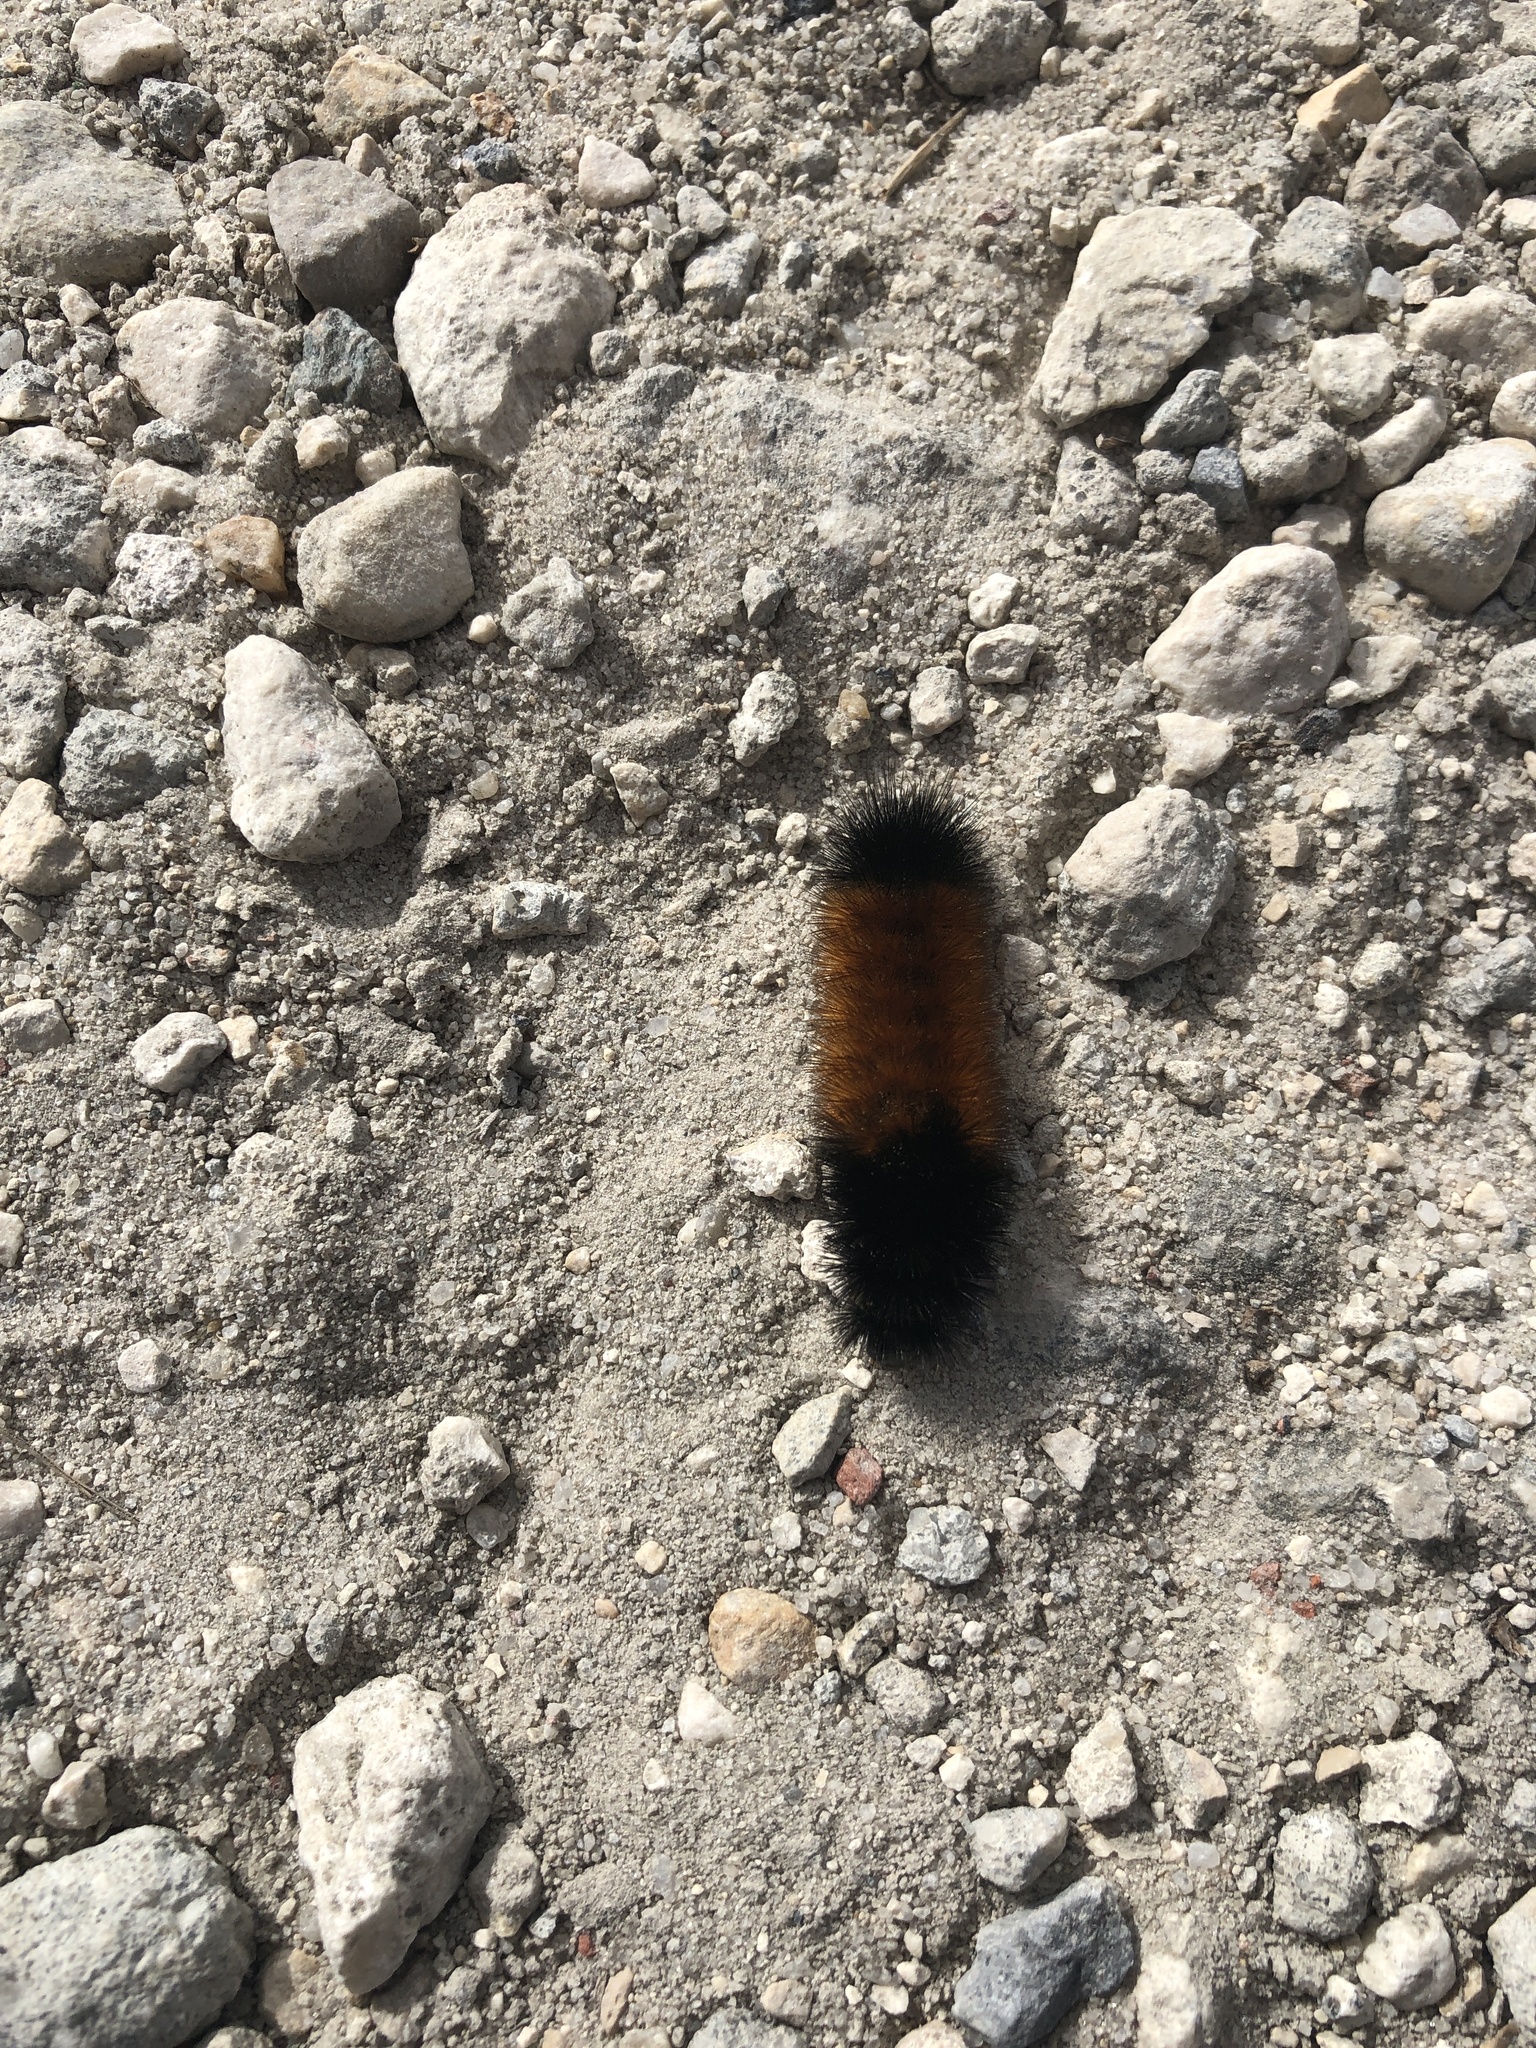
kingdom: Animalia
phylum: Arthropoda
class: Insecta
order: Lepidoptera
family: Erebidae
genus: Pyrrharctia
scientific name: Pyrrharctia isabella
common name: Isabella tiger moth
